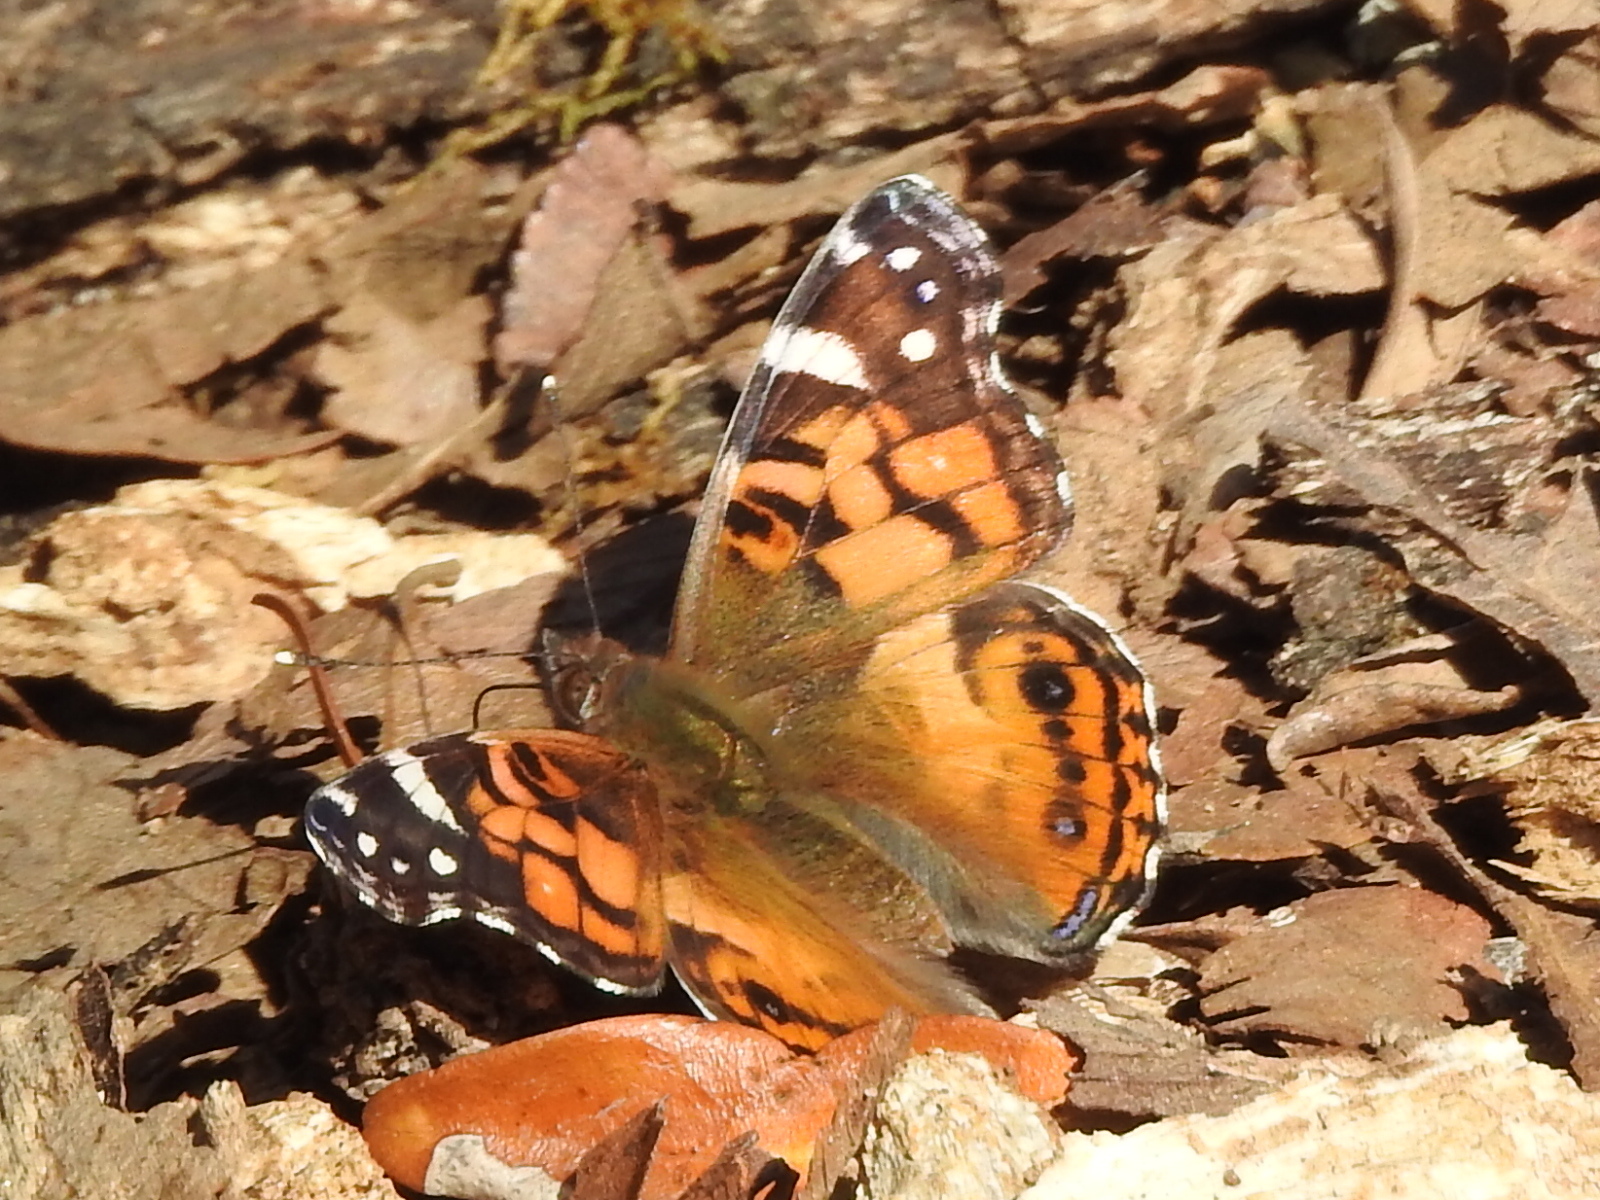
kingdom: Animalia
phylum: Arthropoda
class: Insecta
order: Lepidoptera
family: Nymphalidae
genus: Vanessa
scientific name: Vanessa virginiensis
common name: American lady
